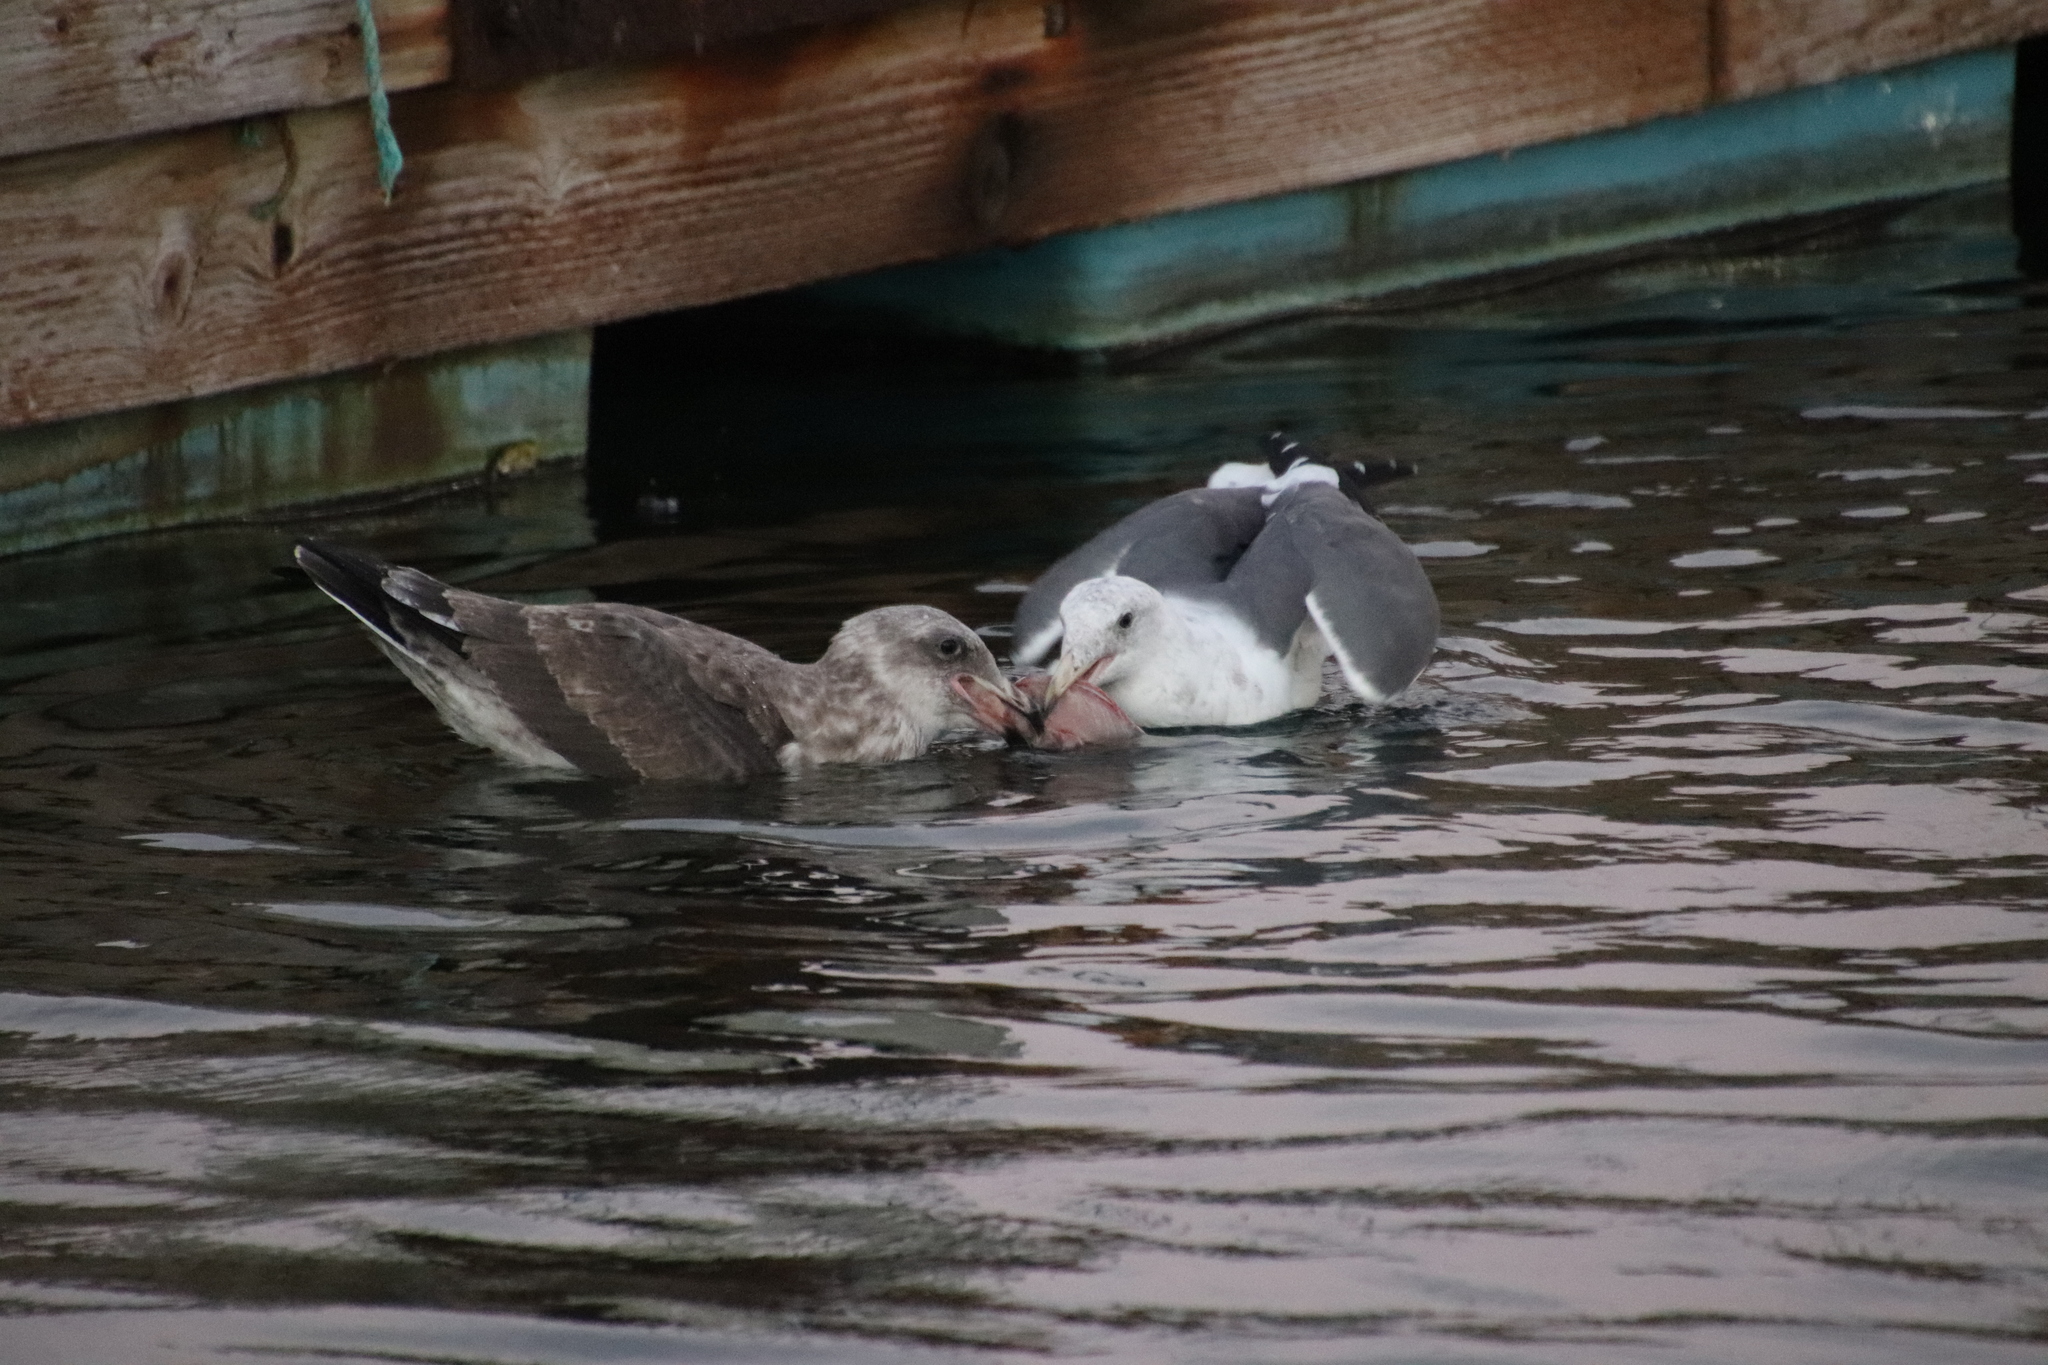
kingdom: Animalia
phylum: Chordata
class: Aves
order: Charadriiformes
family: Laridae
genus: Larus
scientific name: Larus occidentalis
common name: Western gull
